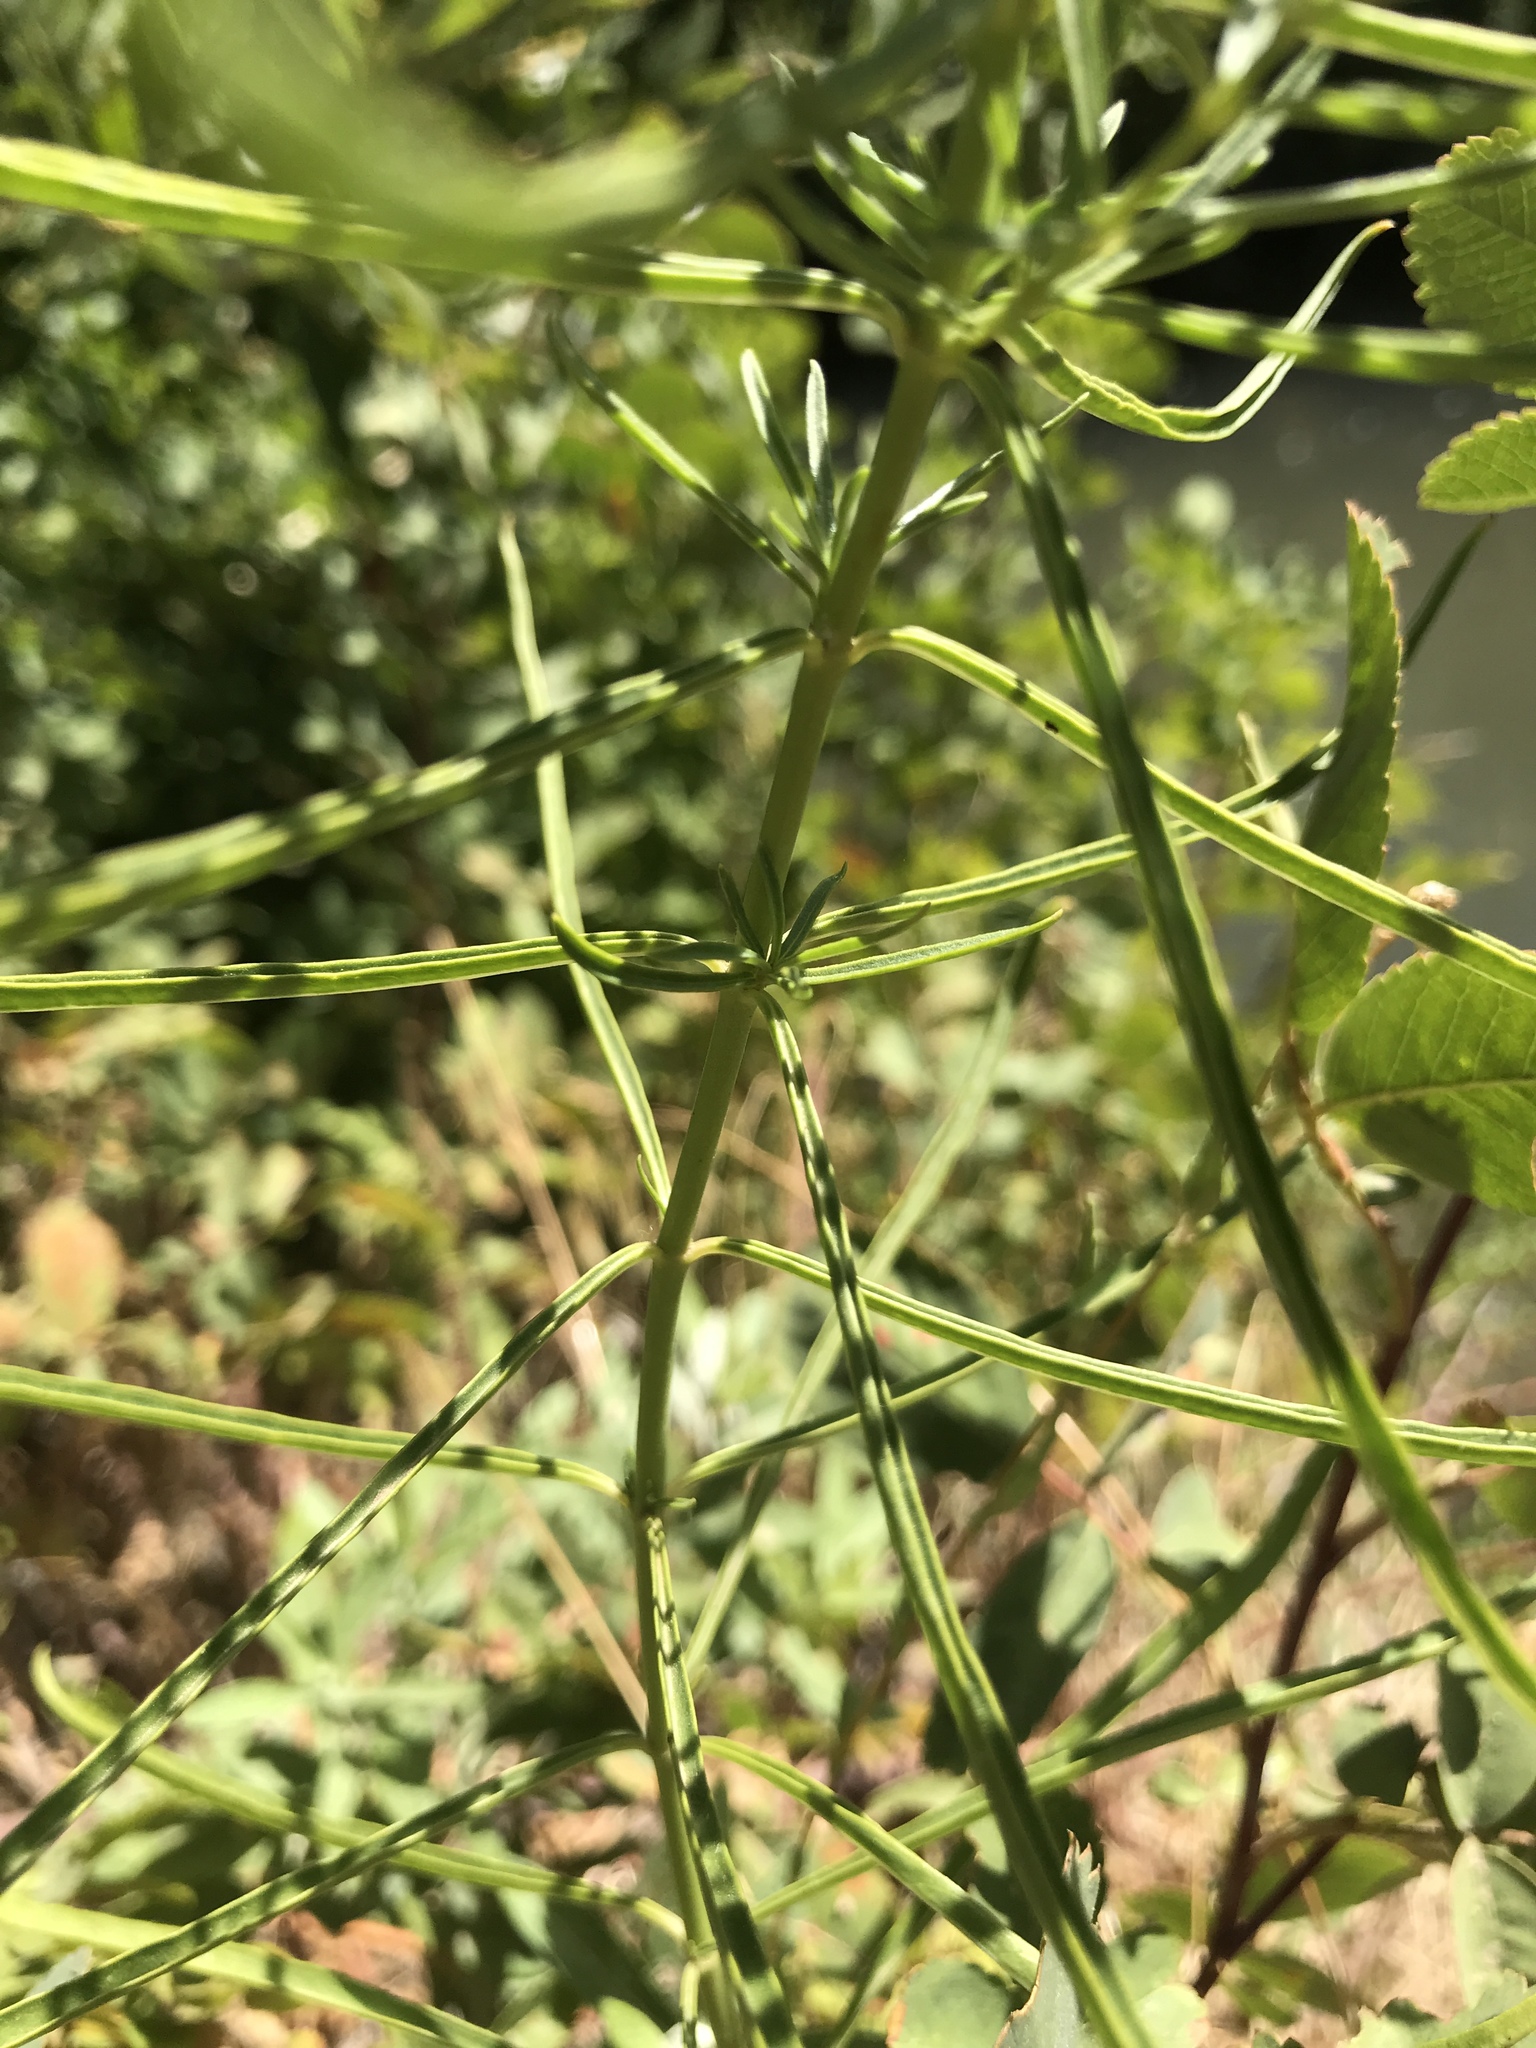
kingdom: Plantae
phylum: Tracheophyta
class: Magnoliopsida
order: Gentianales
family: Apocynaceae
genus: Asclepias
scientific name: Asclepias fascicularis
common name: Mexican milkweed
